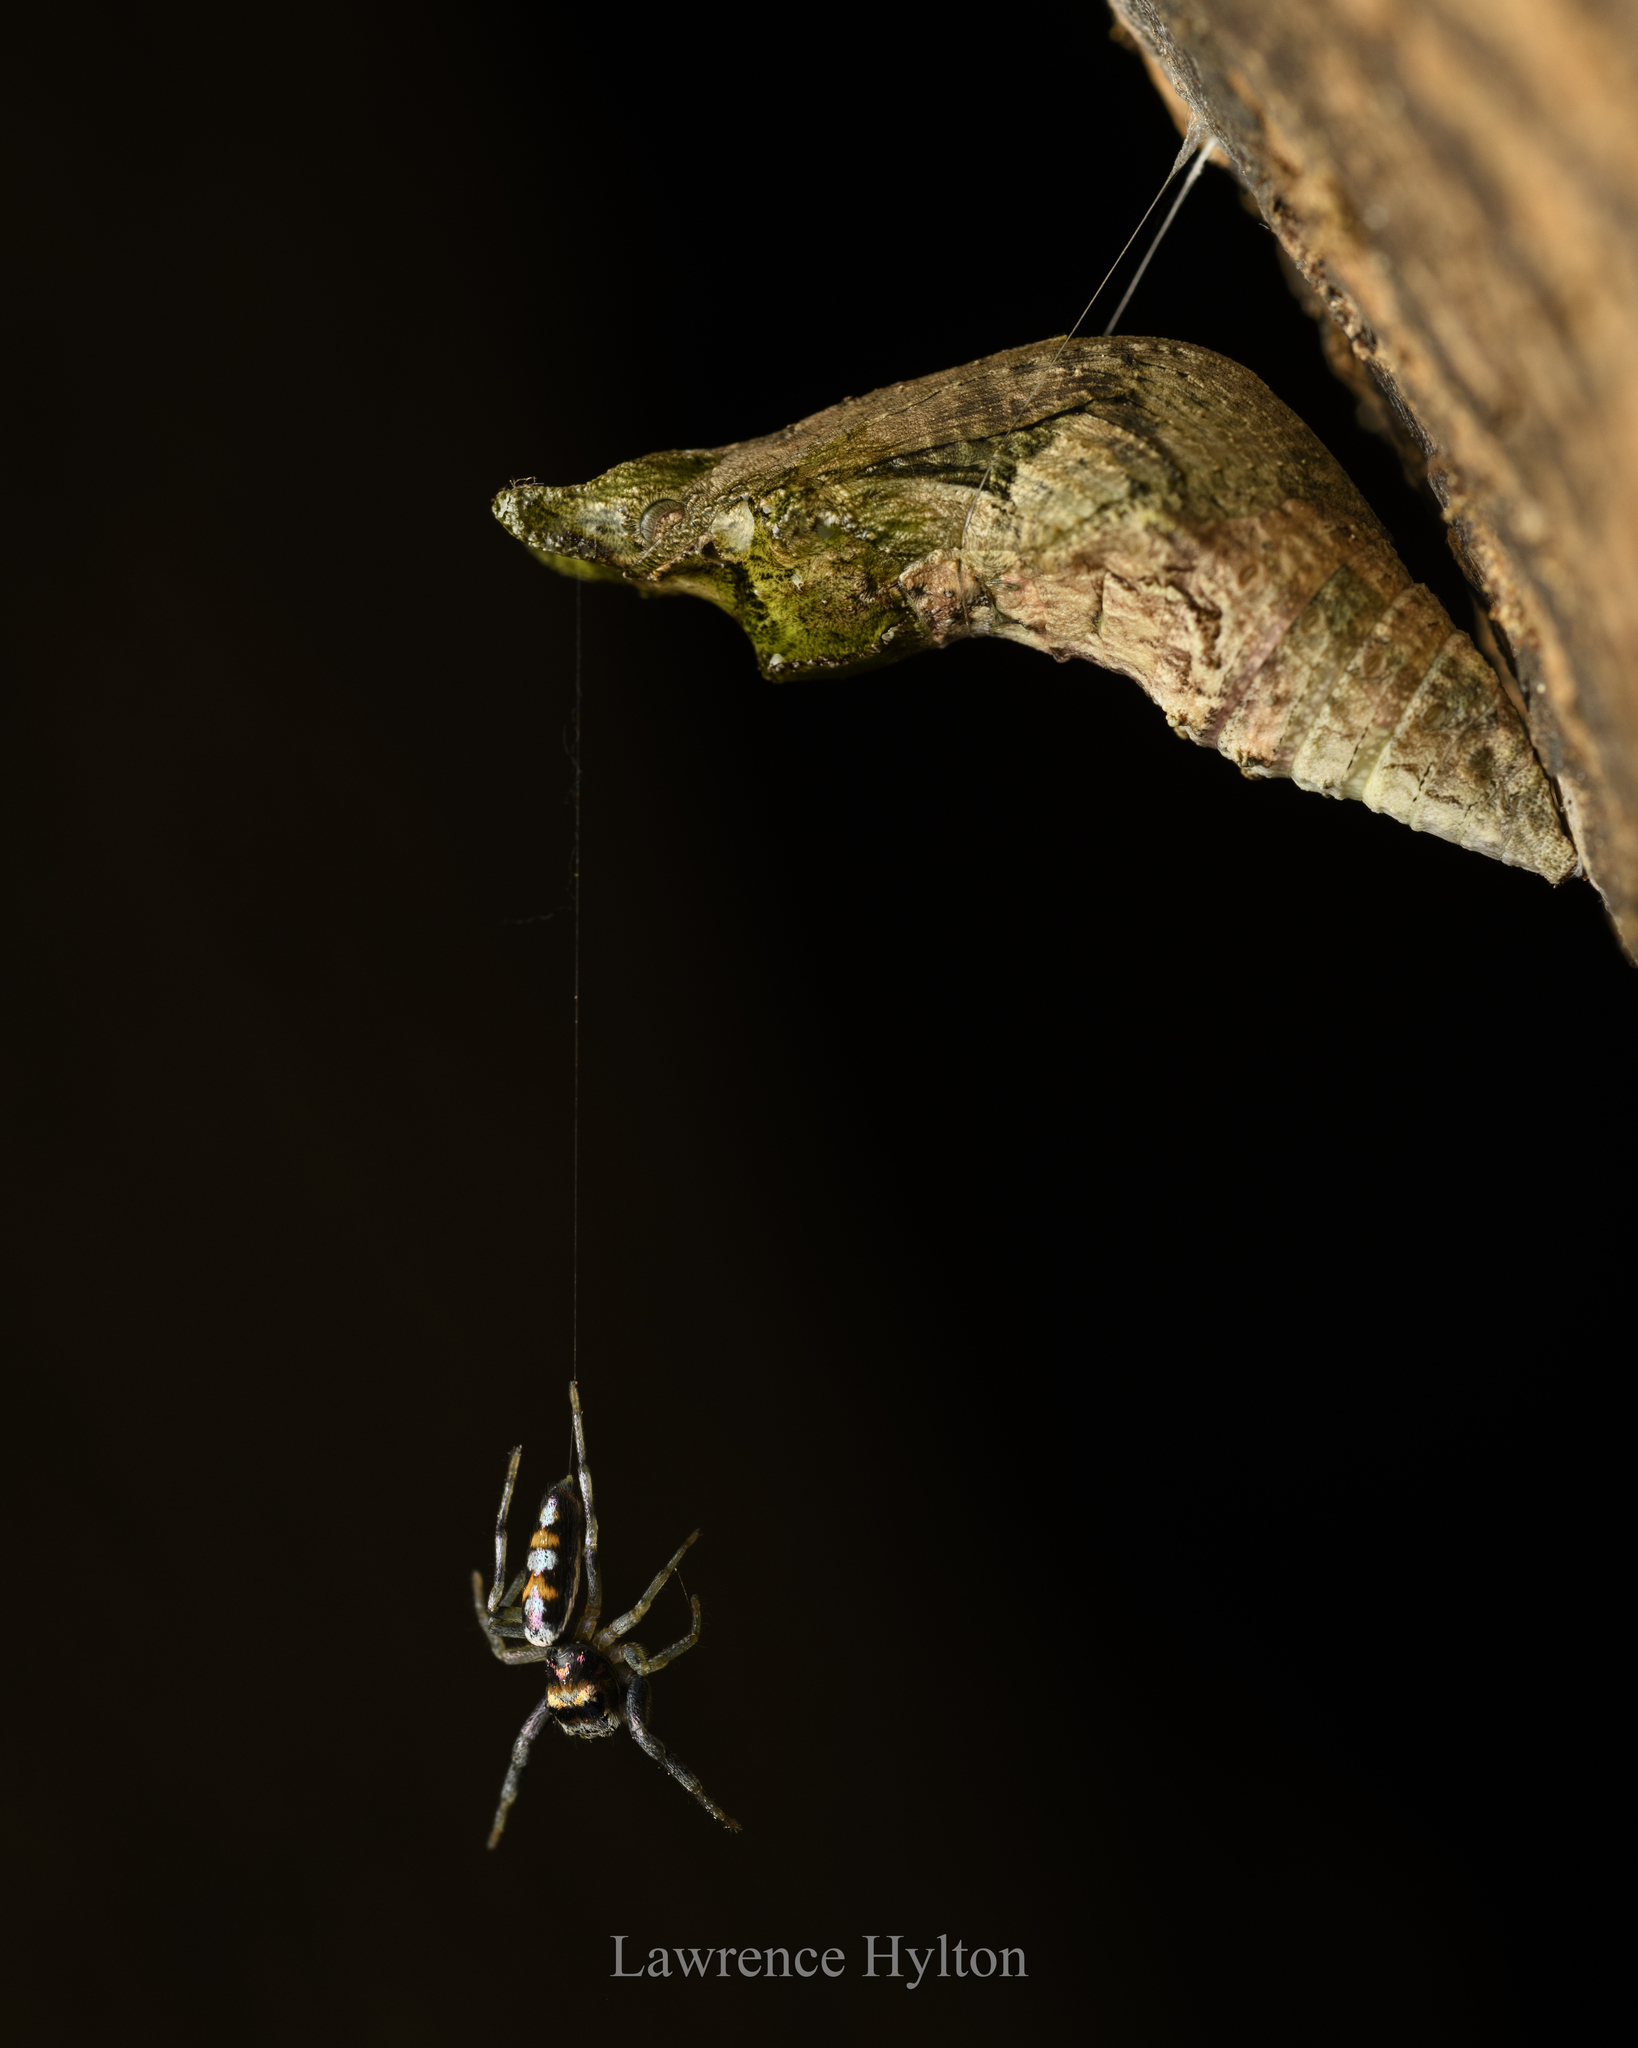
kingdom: Animalia
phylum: Arthropoda
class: Arachnida
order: Araneae
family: Salticidae
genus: Chrysilla
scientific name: Chrysilla acerosa
